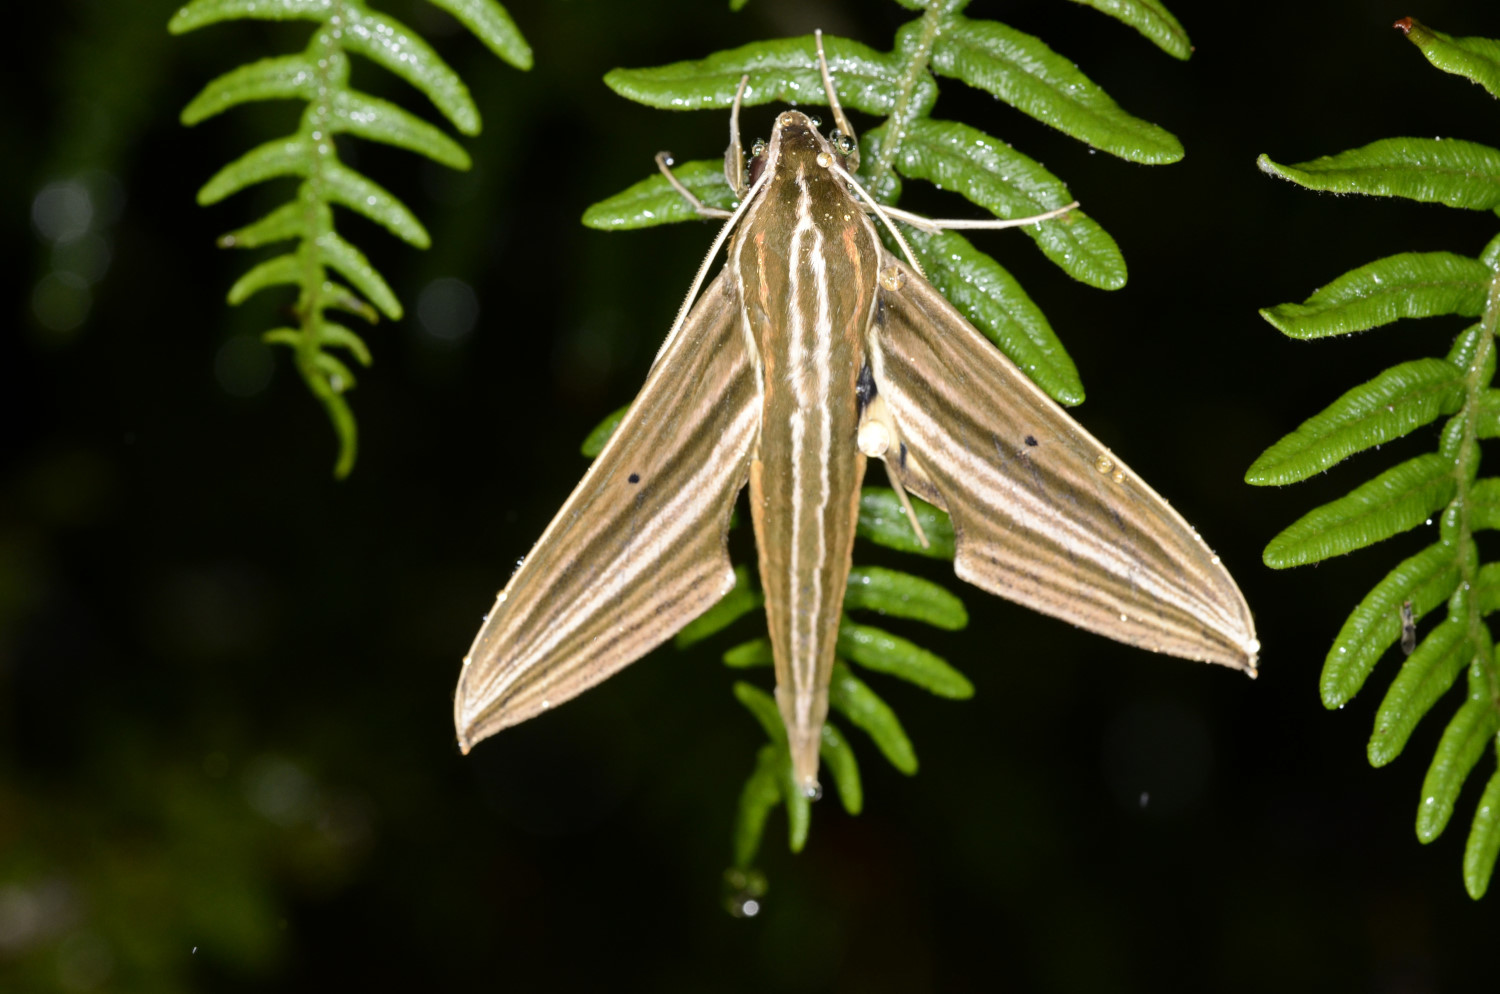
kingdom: Animalia
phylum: Arthropoda
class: Insecta
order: Lepidoptera
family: Sphingidae
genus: Xylophanes
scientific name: Xylophanes titana
